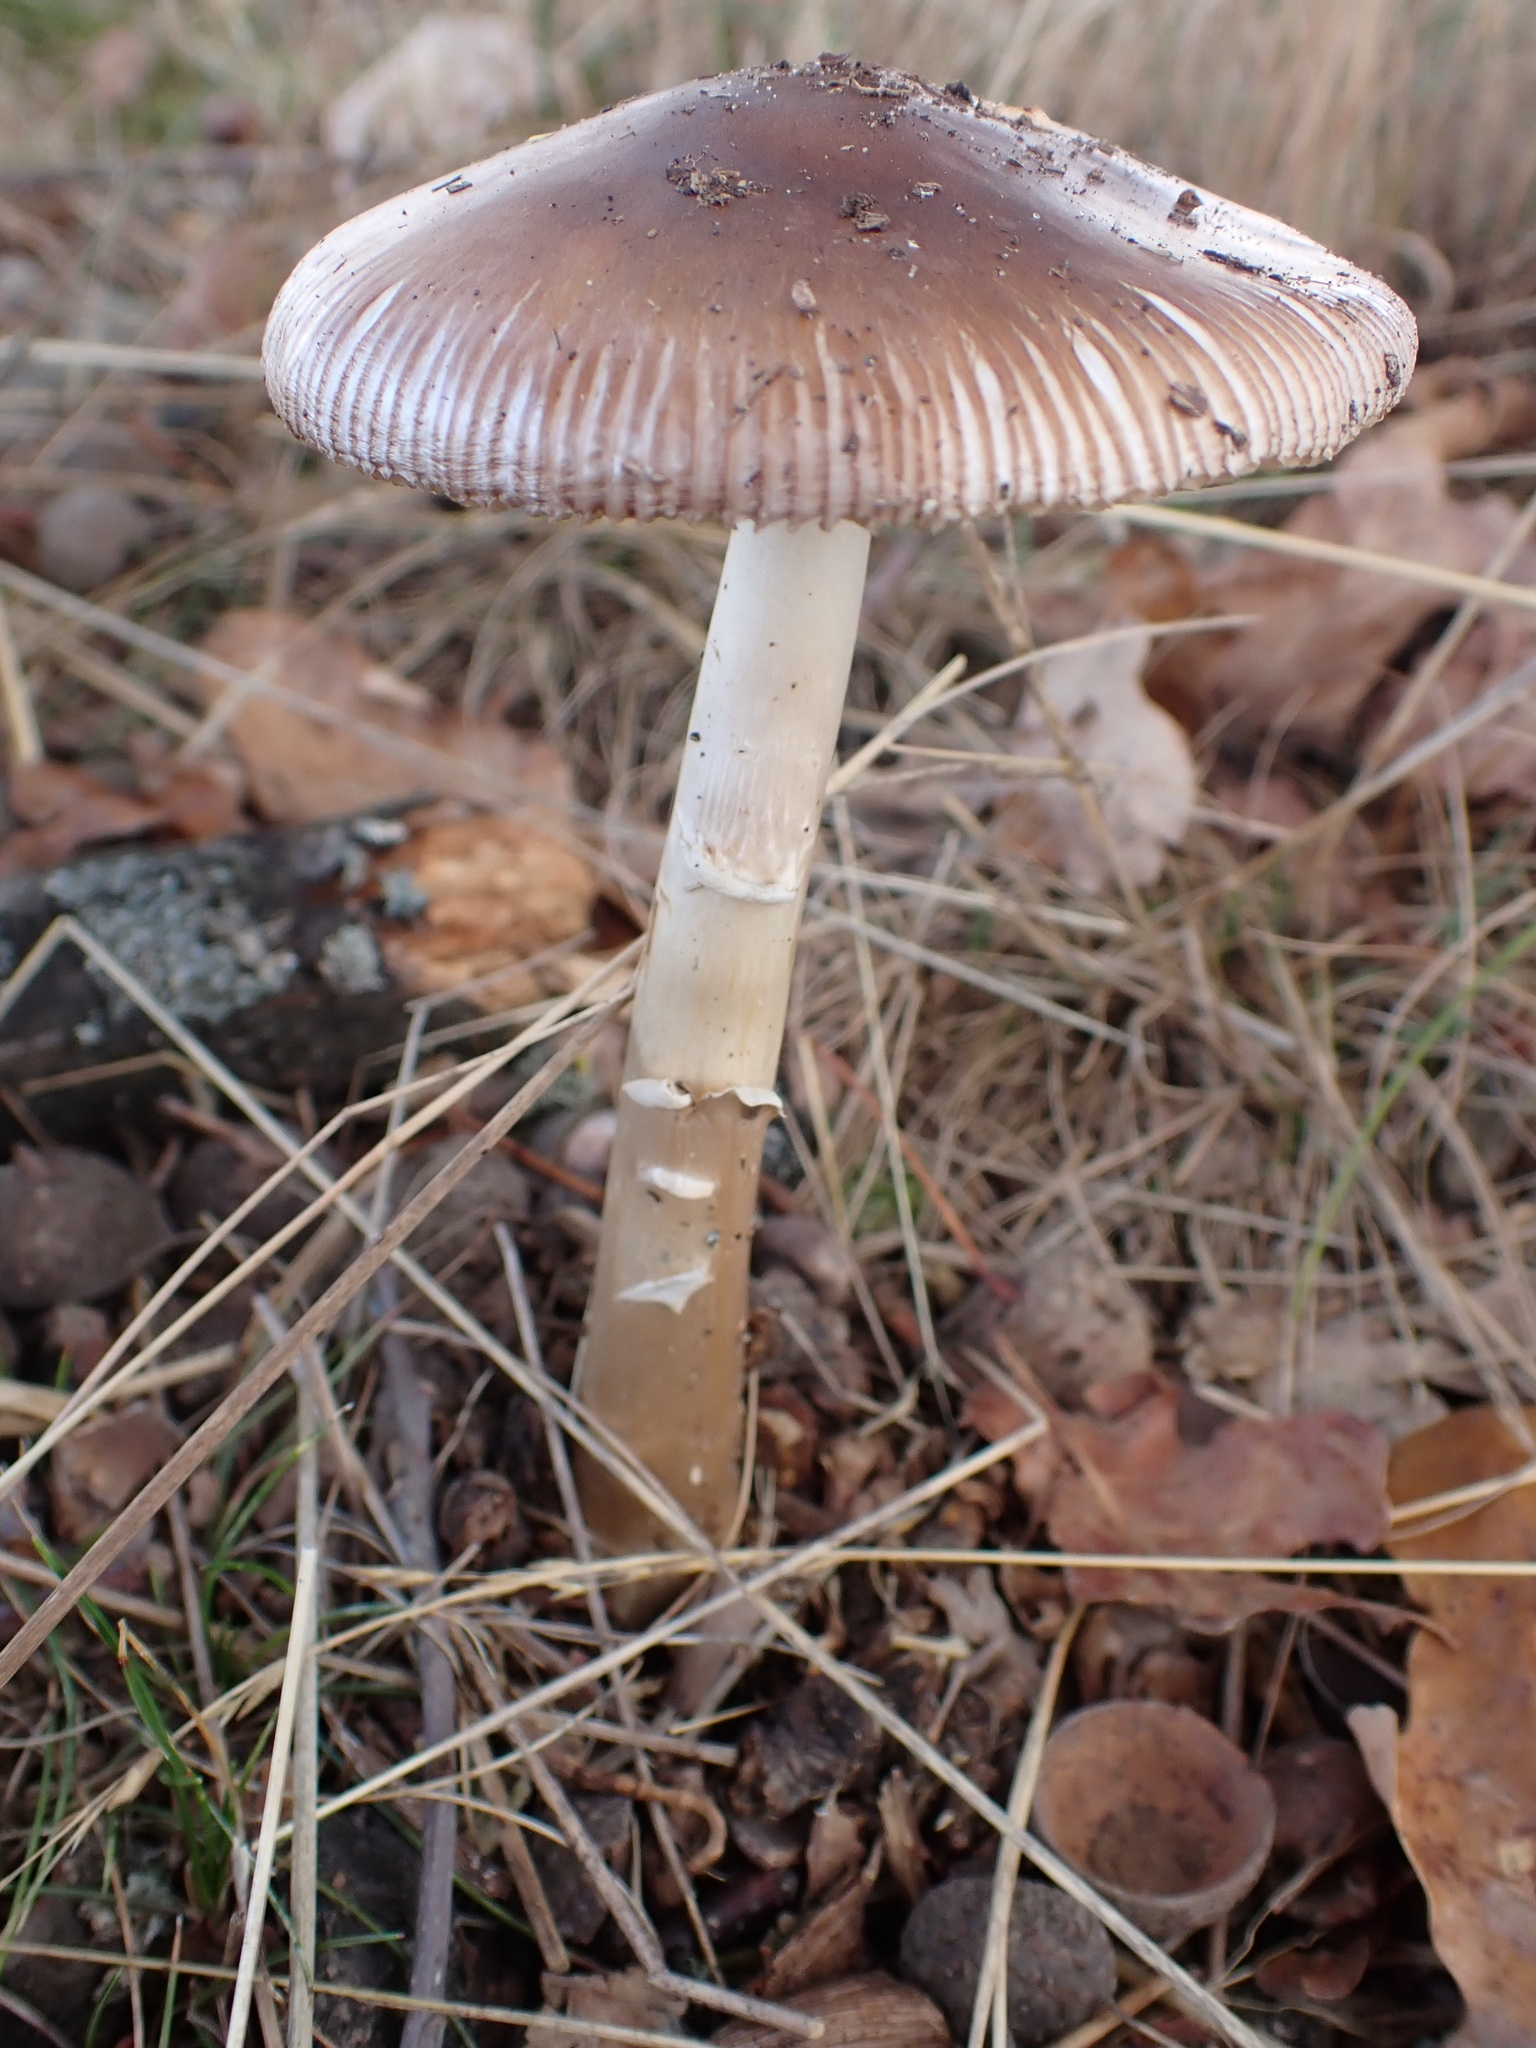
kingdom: Fungi
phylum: Basidiomycota
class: Agaricomycetes
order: Agaricales
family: Amanitaceae
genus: Amanita
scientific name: Amanita fulva
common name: Tawny grisette
